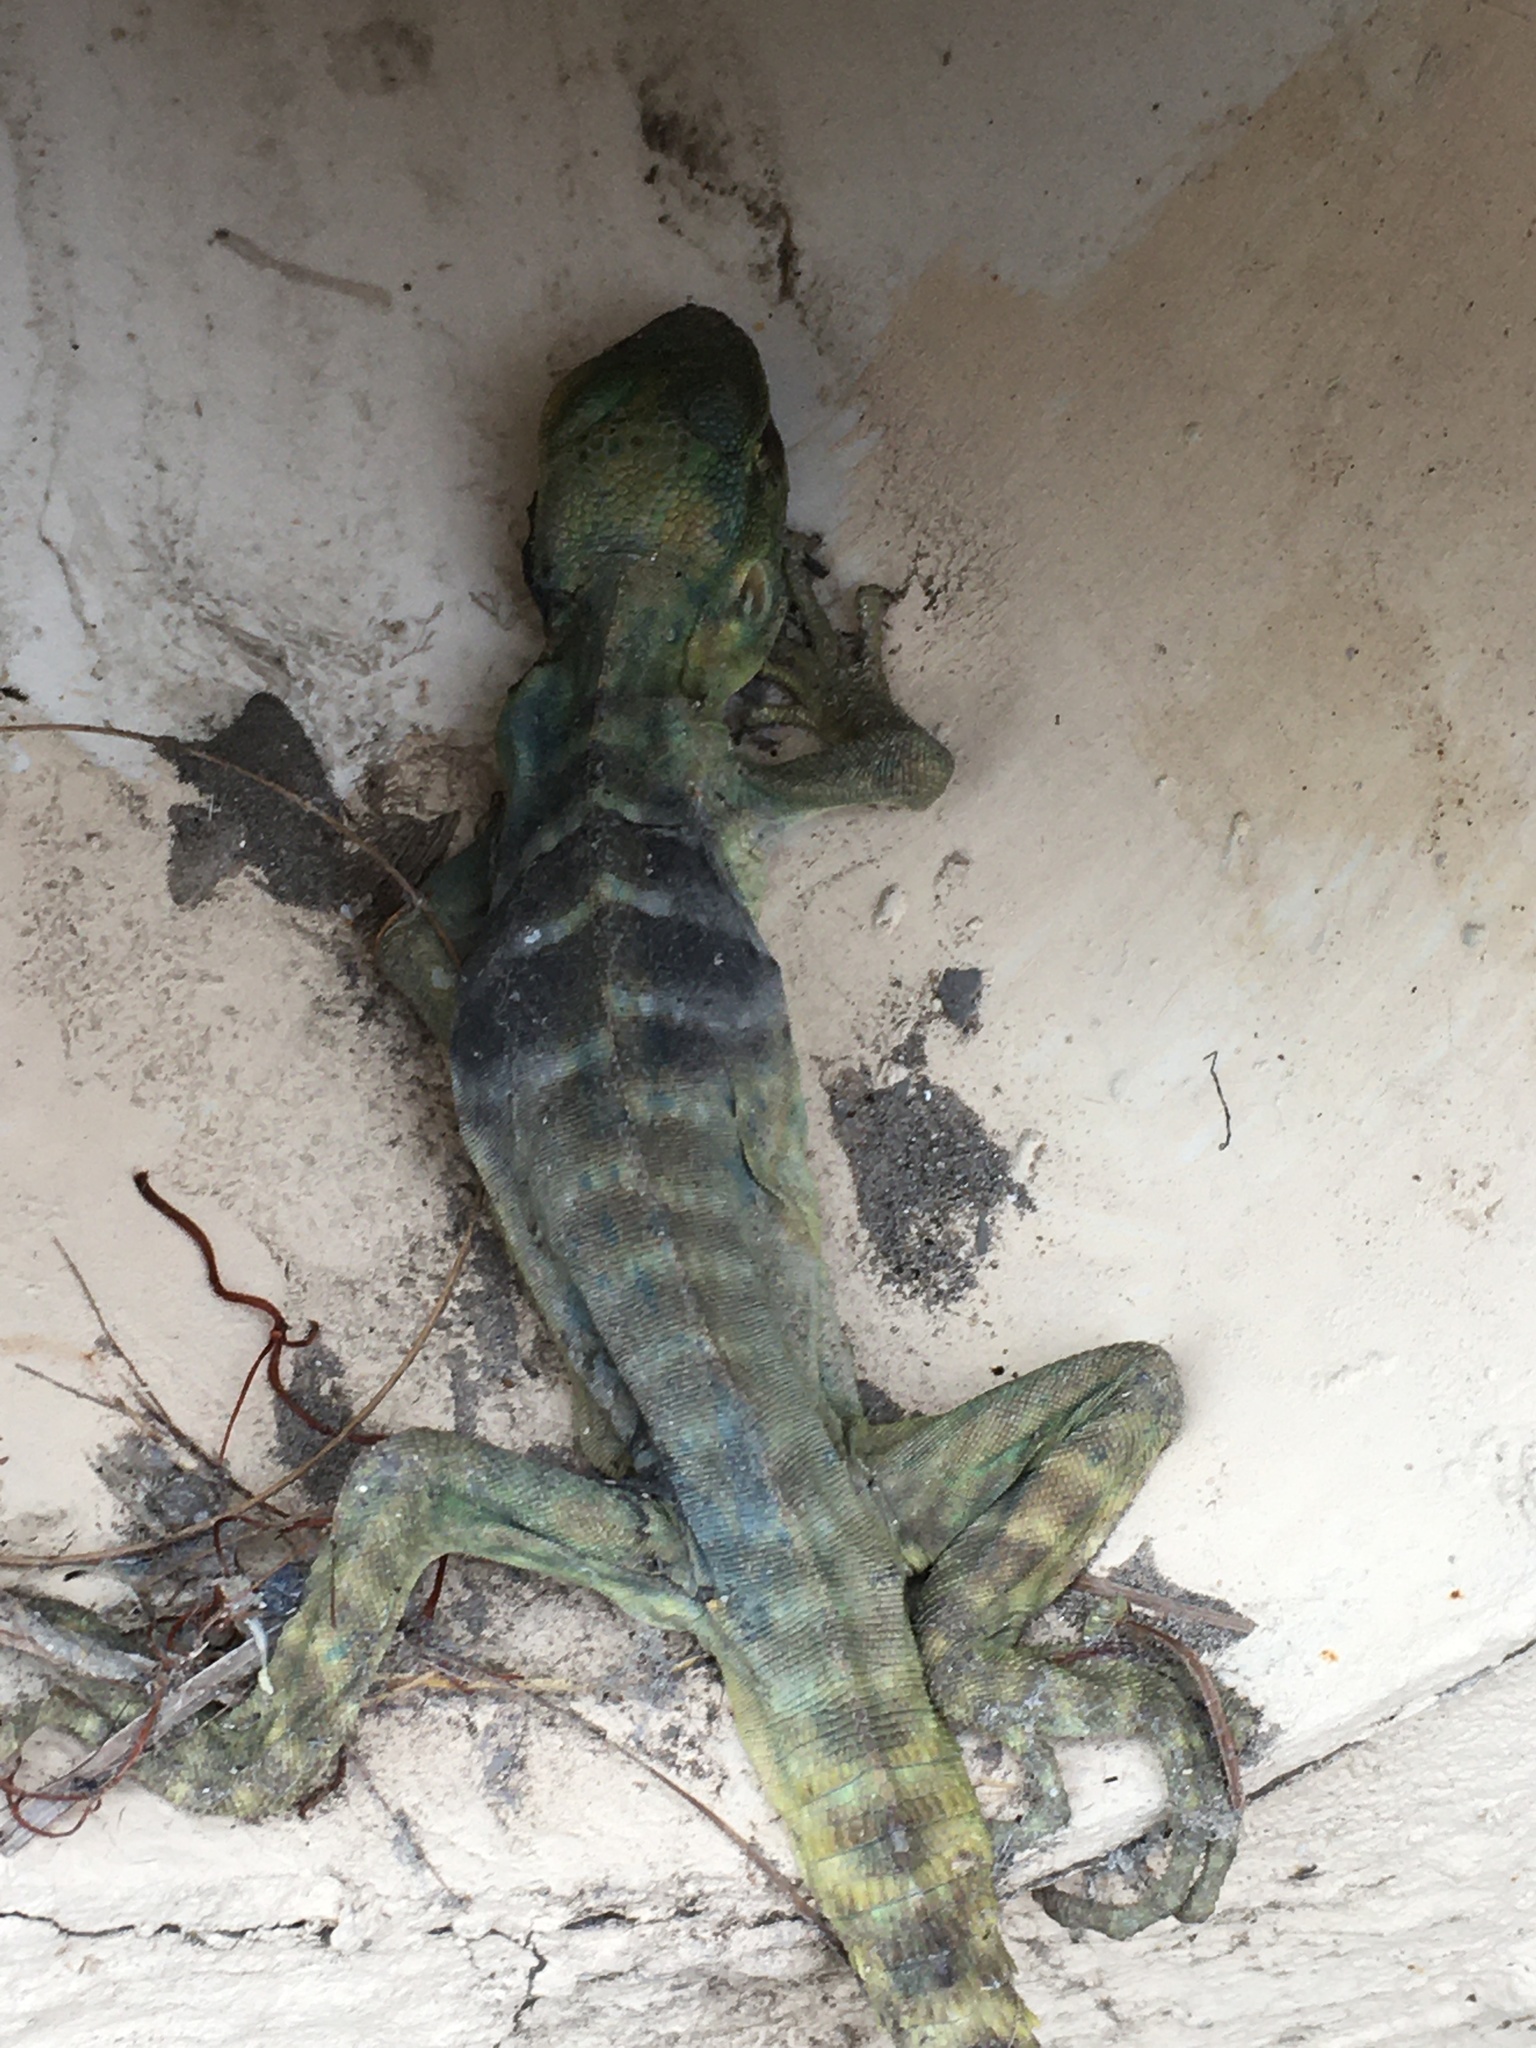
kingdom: Animalia
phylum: Chordata
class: Squamata
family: Iguanidae
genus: Ctenosaura
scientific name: Ctenosaura macrolopha
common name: Cape spinytail iguana
